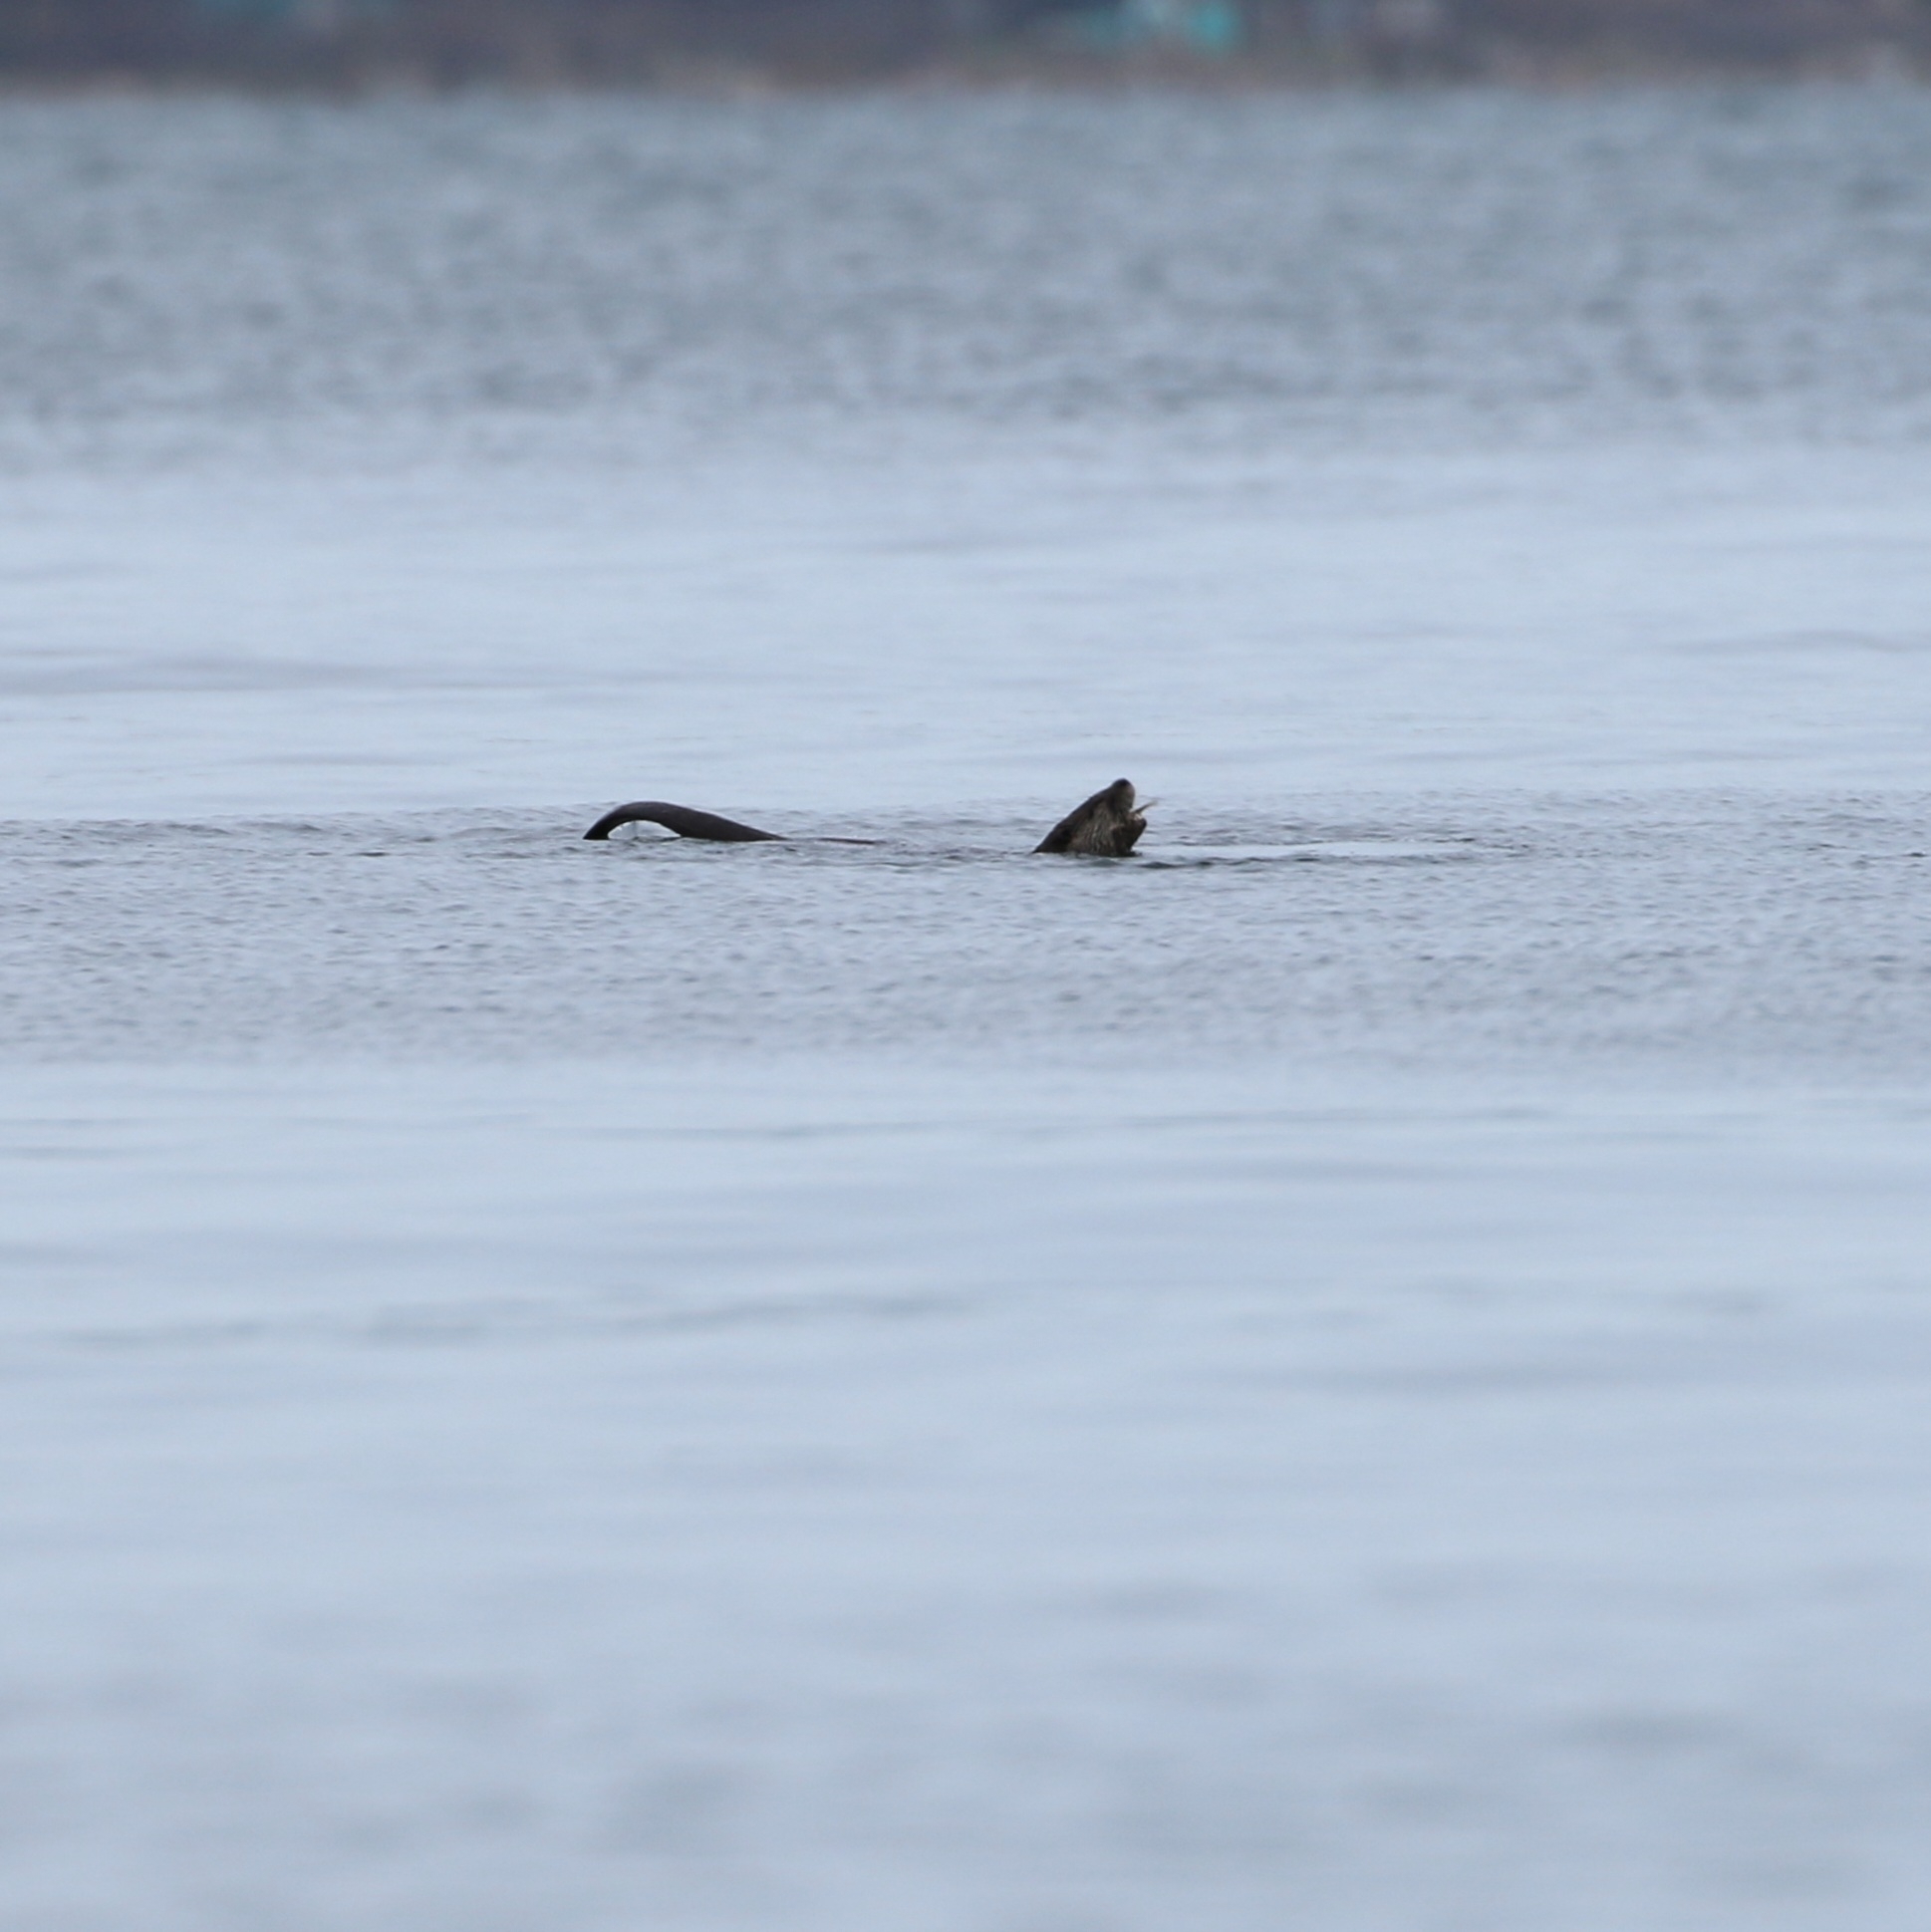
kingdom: Animalia
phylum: Chordata
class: Mammalia
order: Carnivora
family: Mustelidae
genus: Lontra
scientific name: Lontra canadensis
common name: North american river otter
